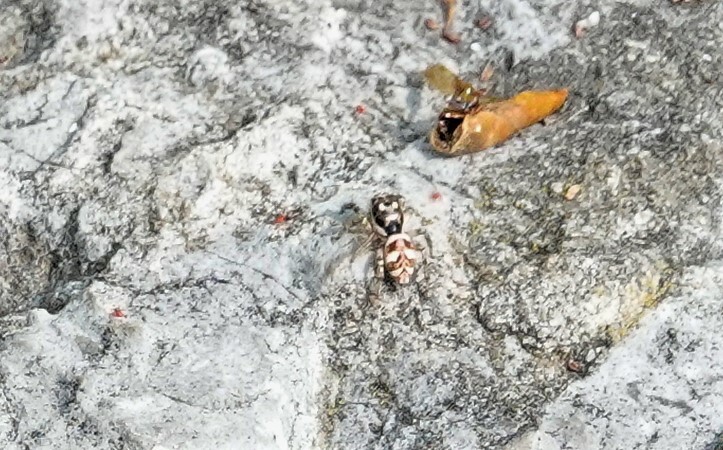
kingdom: Animalia
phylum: Arthropoda
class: Arachnida
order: Araneae
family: Salticidae
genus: Salticus
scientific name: Salticus scenicus
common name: Zebra jumper
